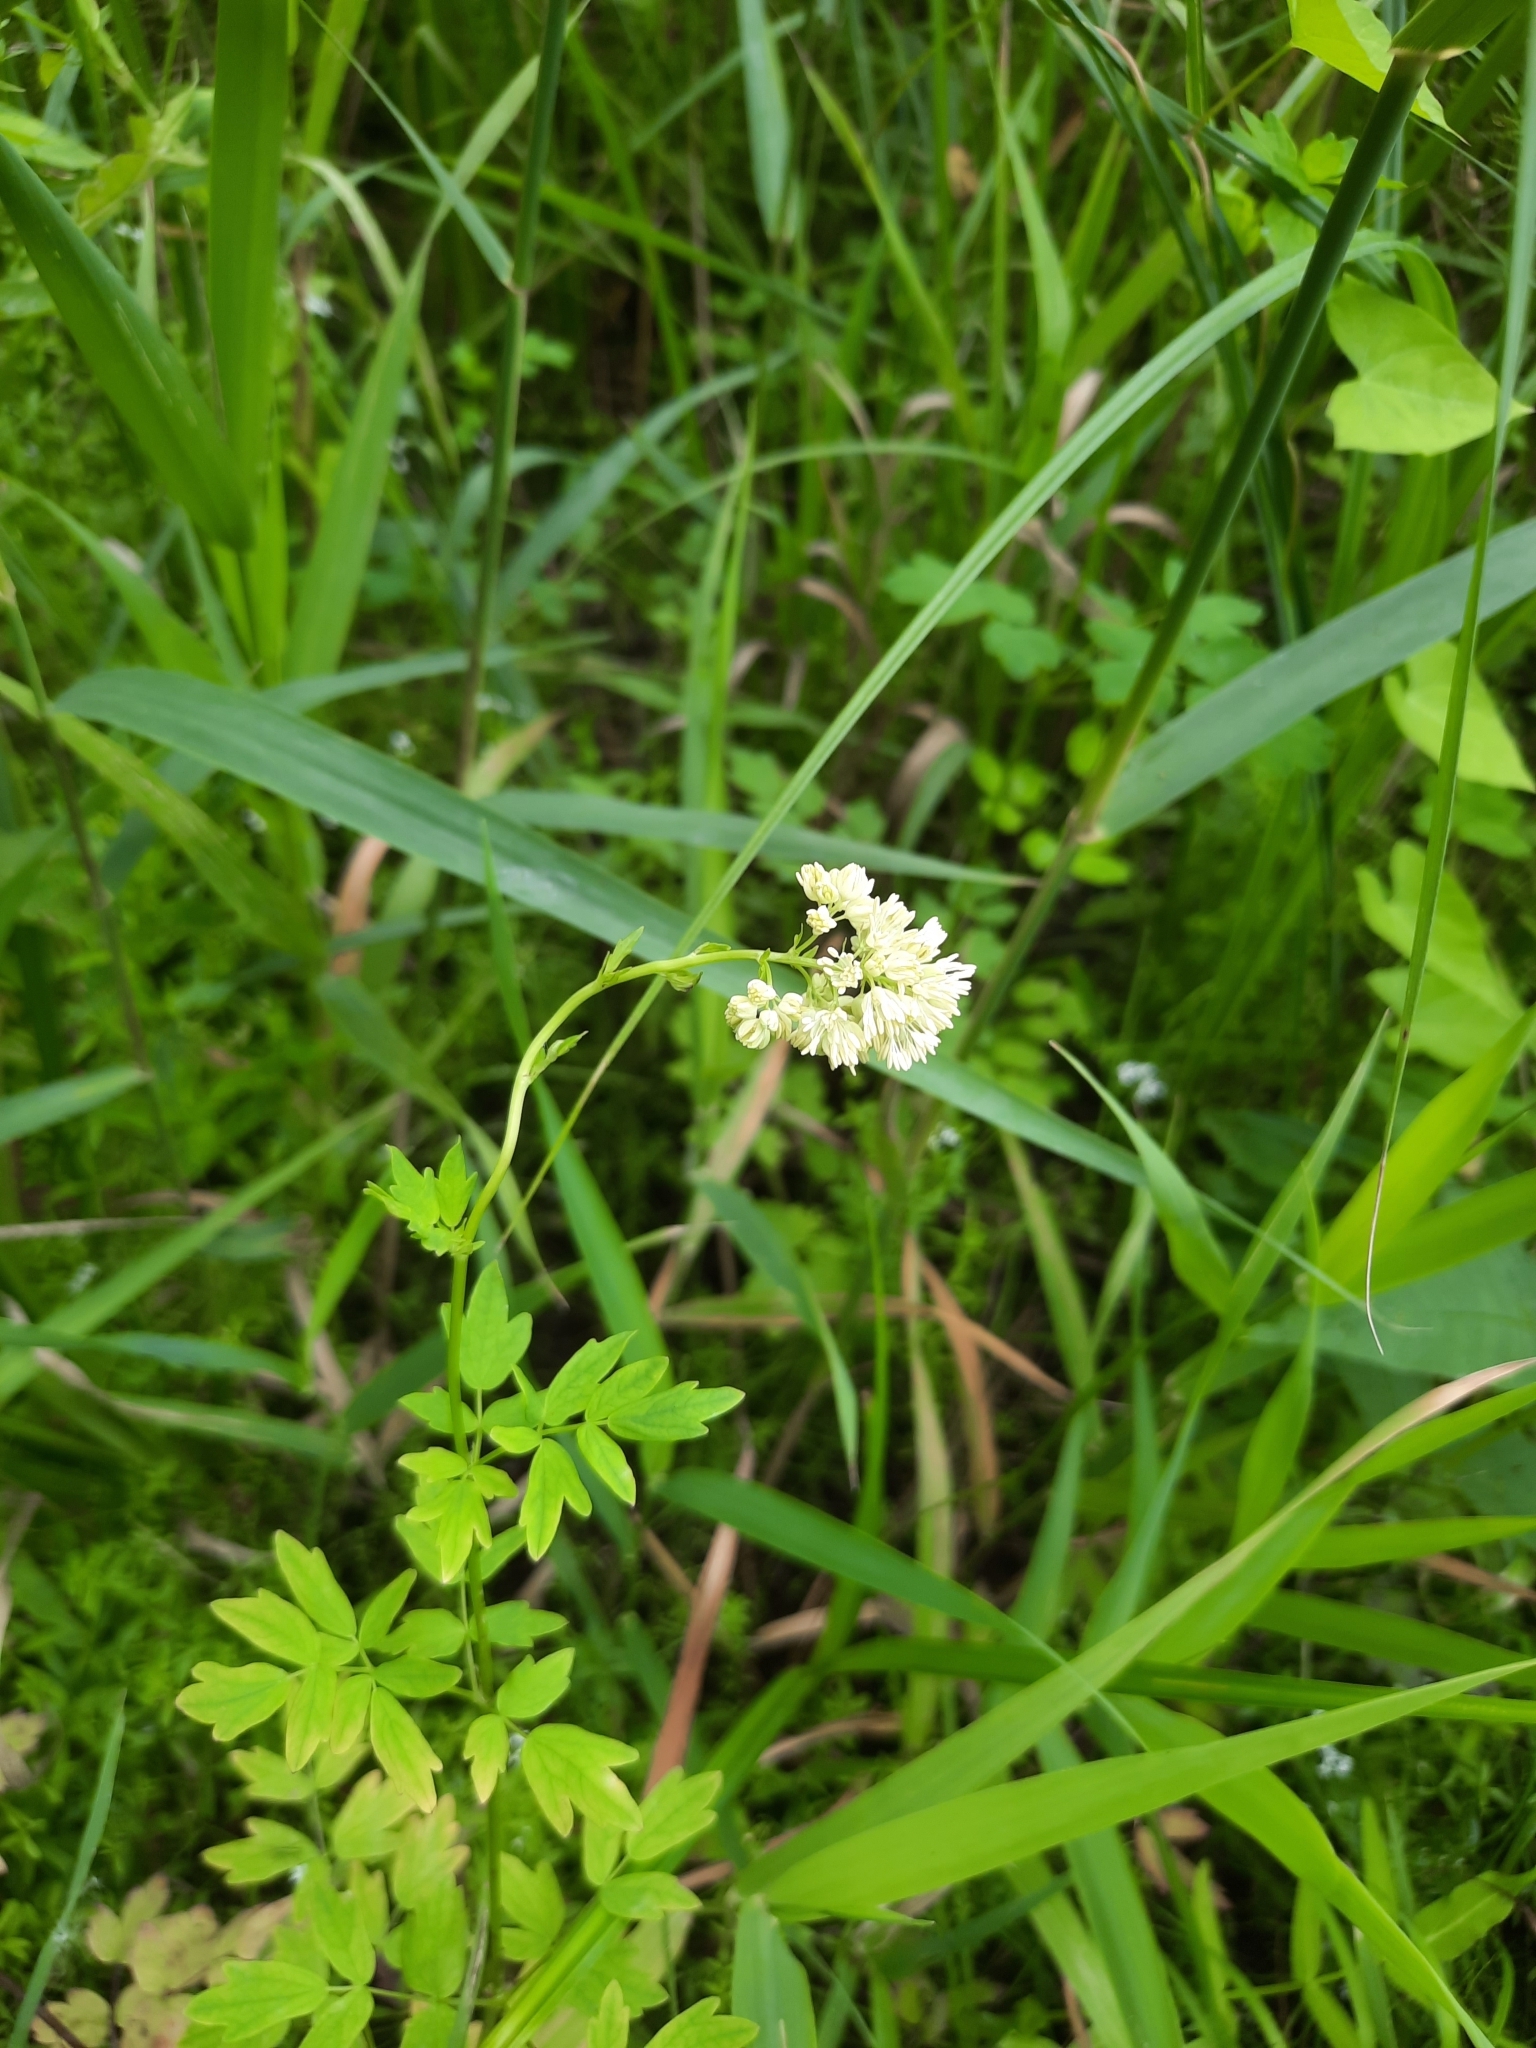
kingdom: Plantae
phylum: Tracheophyta
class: Magnoliopsida
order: Ranunculales
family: Ranunculaceae
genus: Thalictrum
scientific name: Thalictrum simplex
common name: Small meadow-rue
